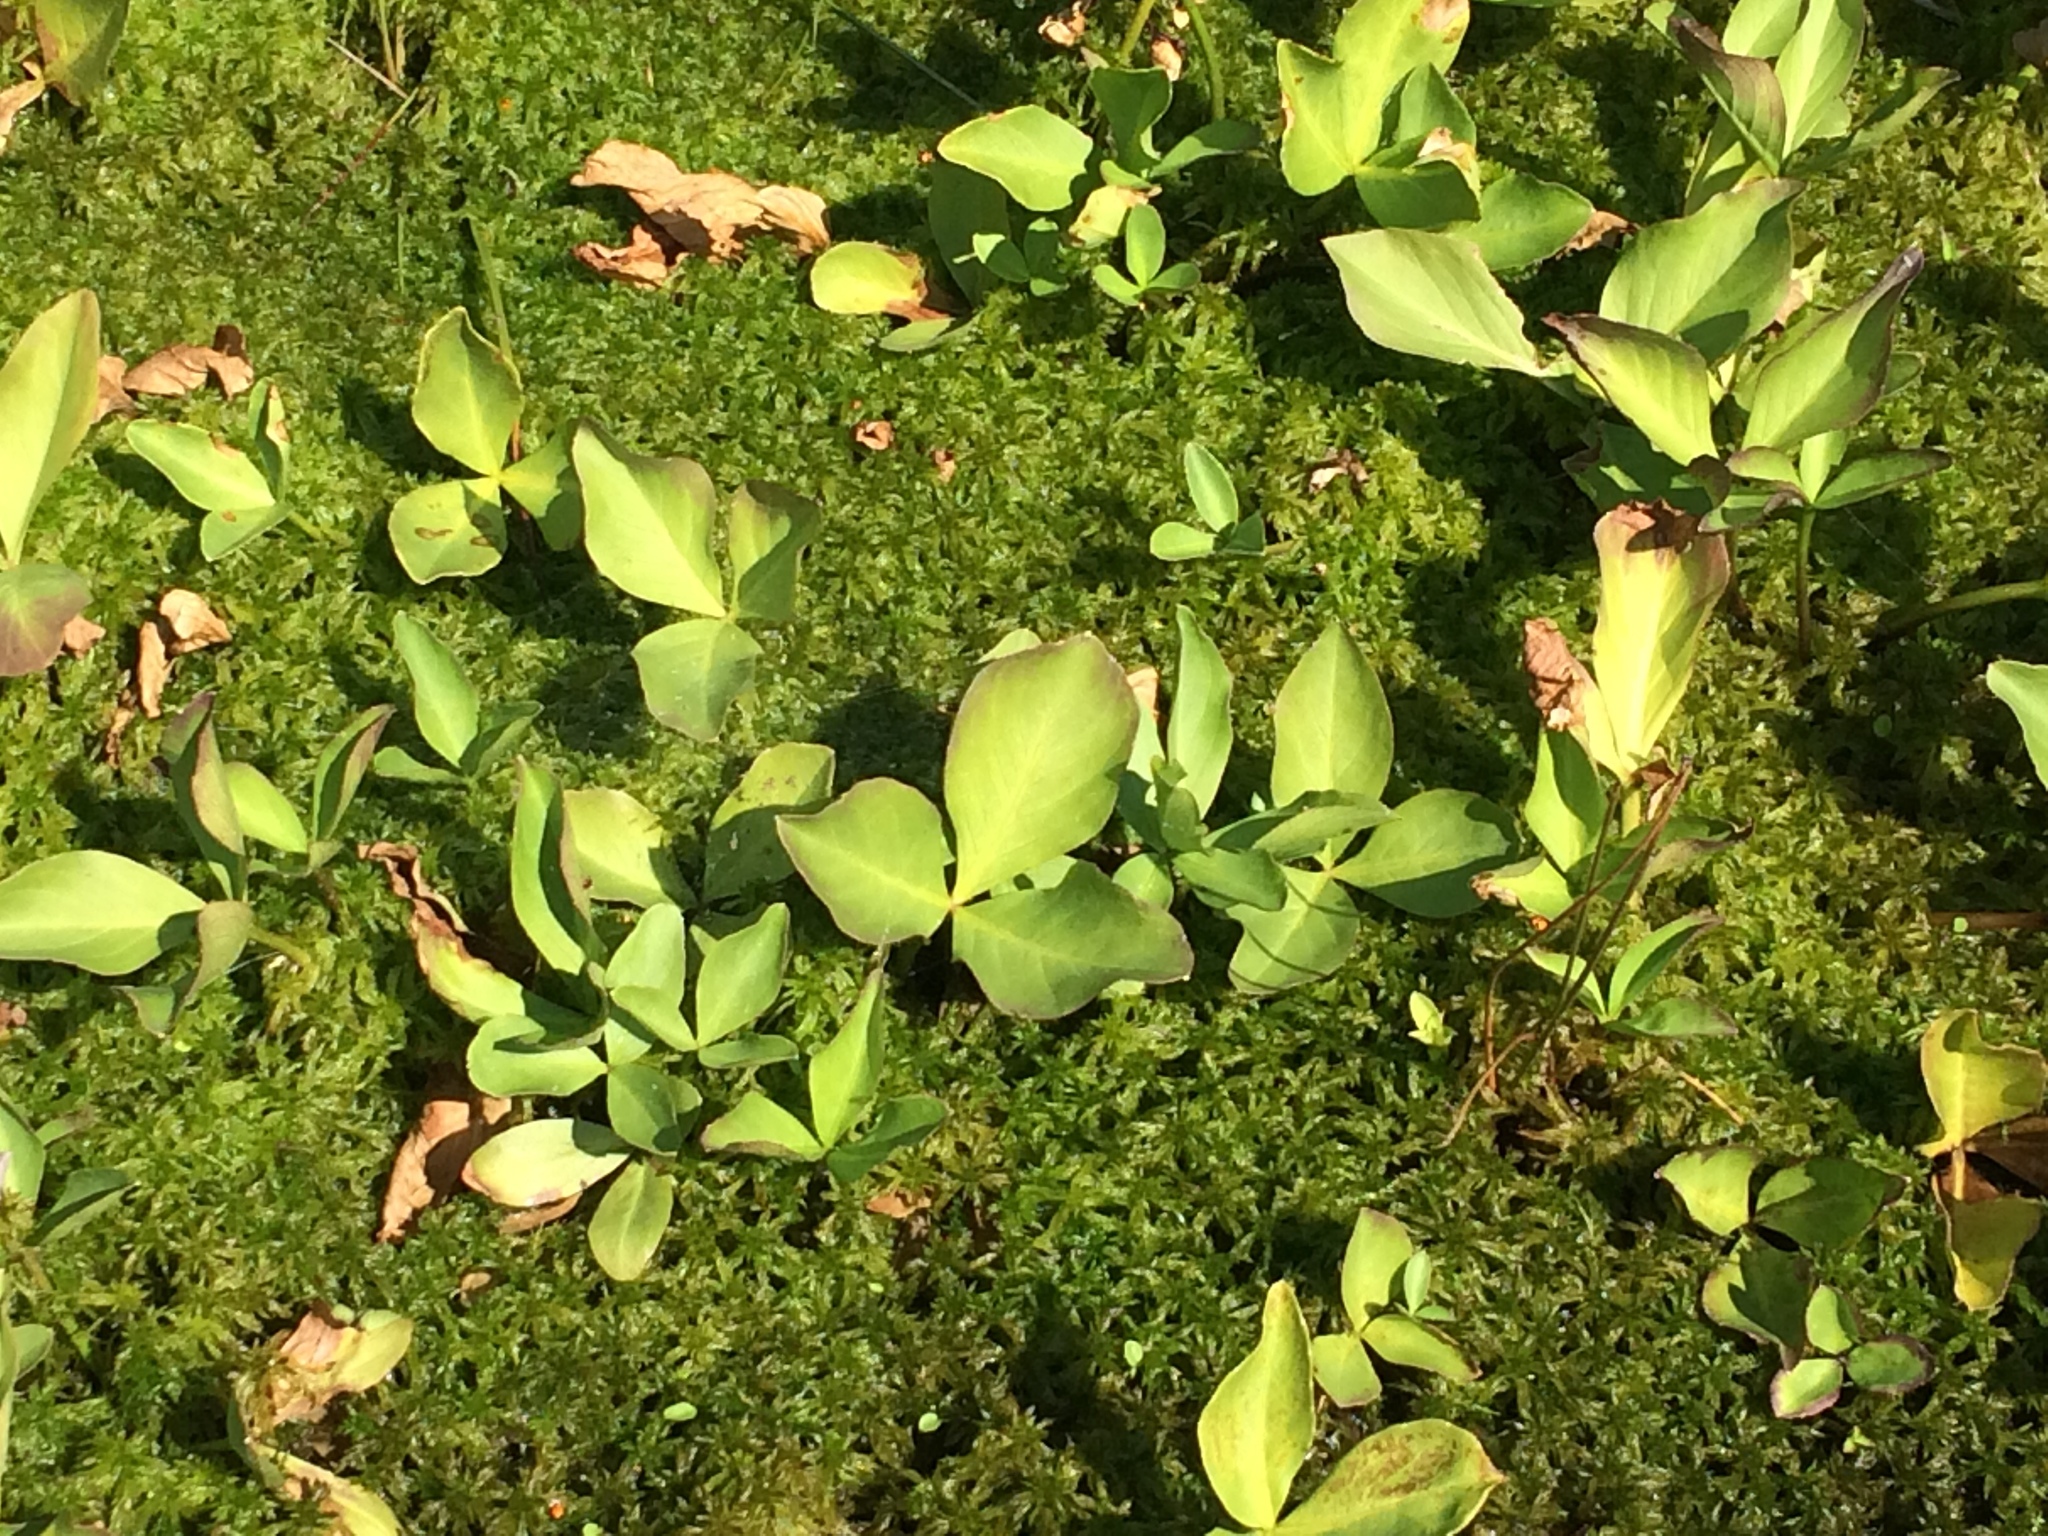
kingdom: Plantae
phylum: Tracheophyta
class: Magnoliopsida
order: Asterales
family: Menyanthaceae
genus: Menyanthes
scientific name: Menyanthes trifoliata
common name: Bogbean
